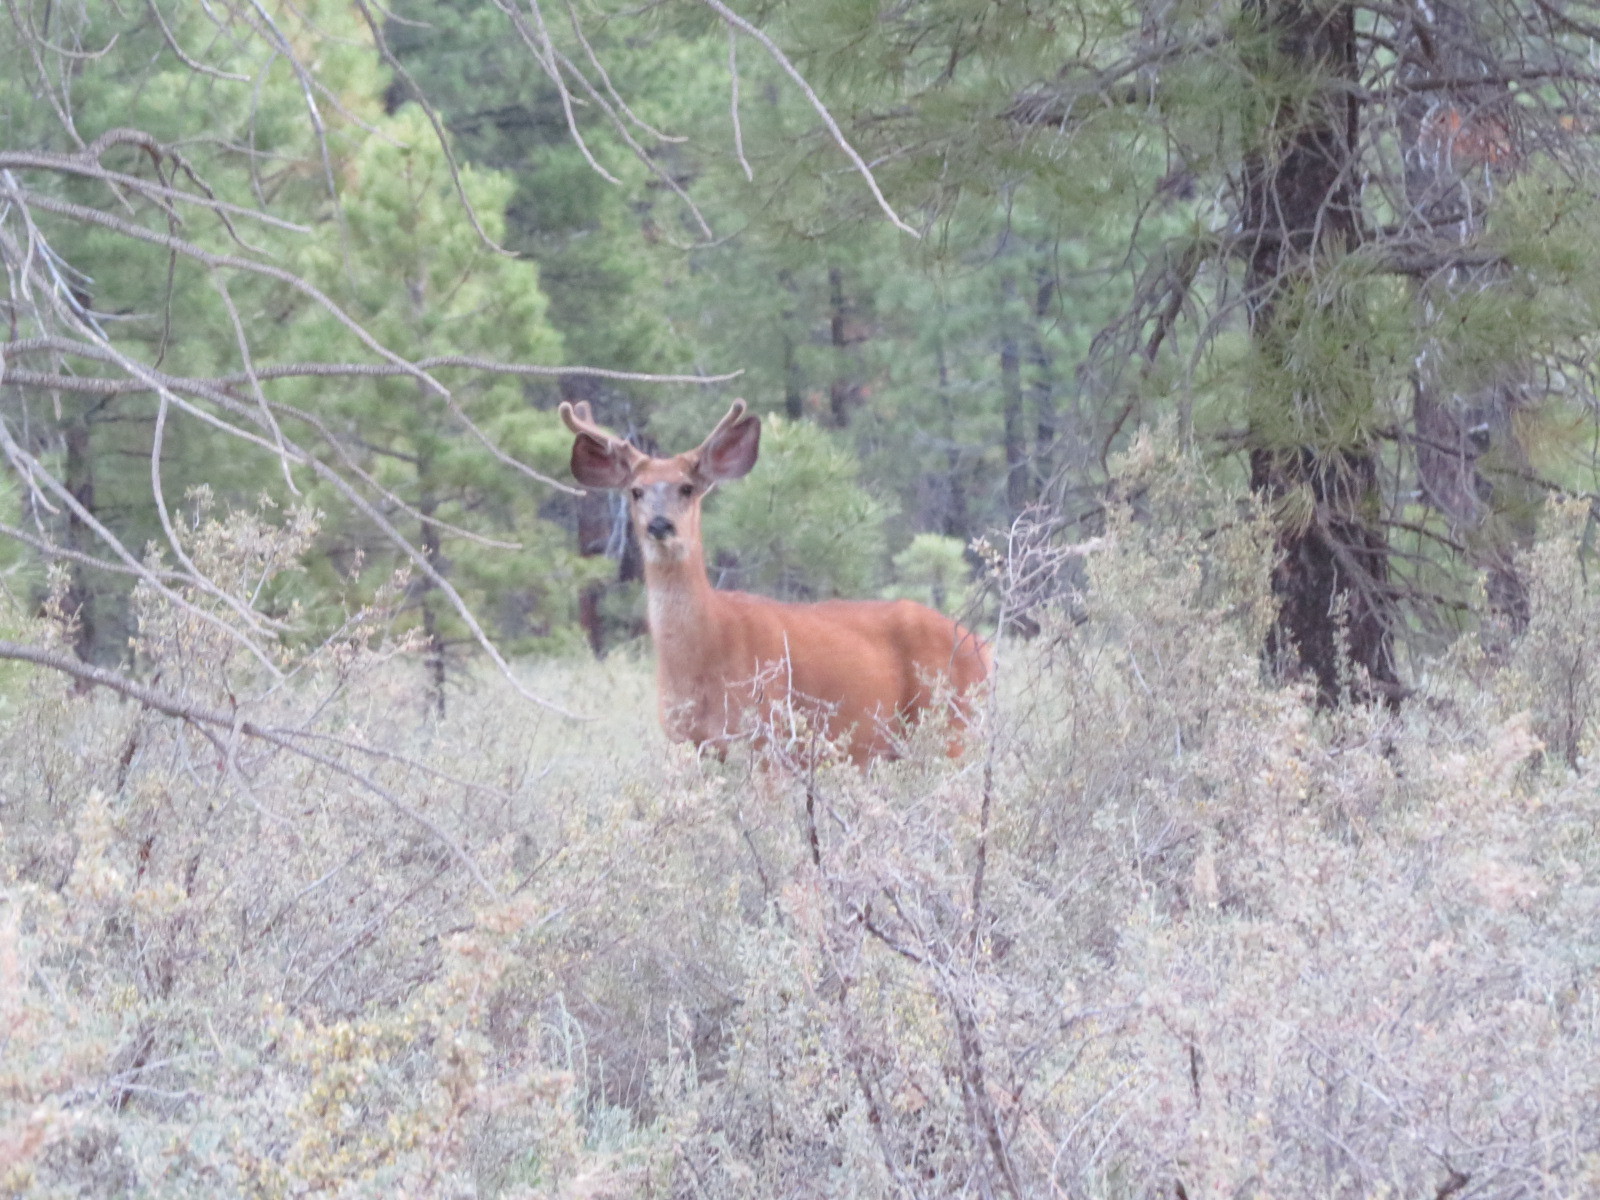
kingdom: Animalia
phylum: Chordata
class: Mammalia
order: Artiodactyla
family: Cervidae
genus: Odocoileus
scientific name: Odocoileus hemionus
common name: Mule deer
